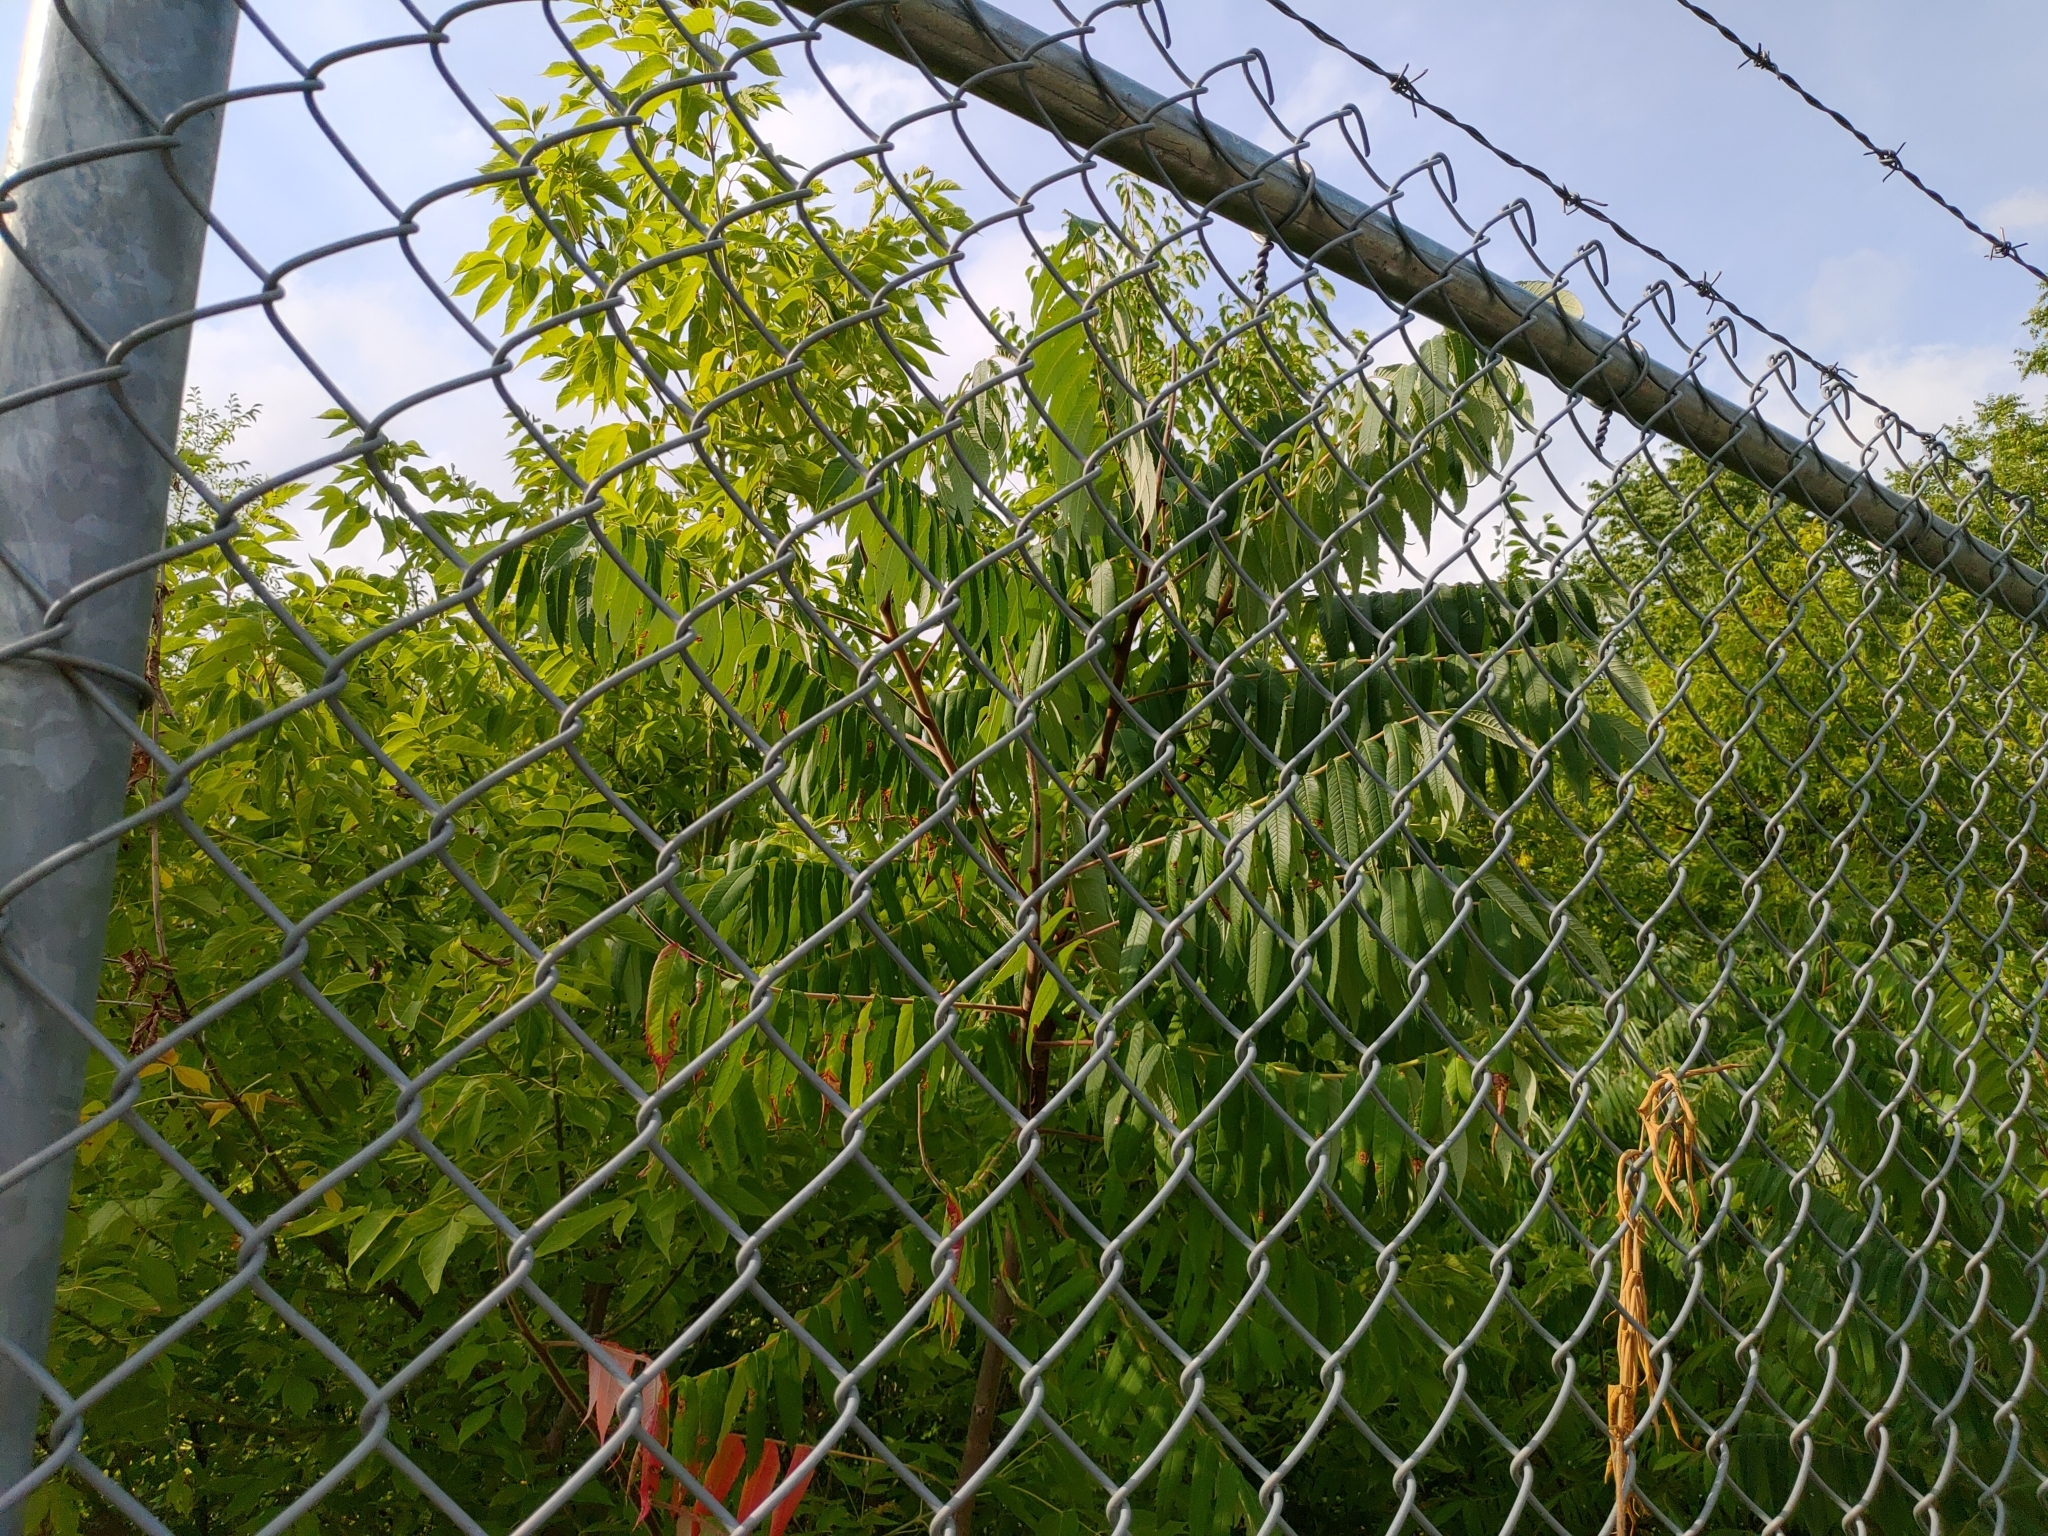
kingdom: Plantae
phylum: Tracheophyta
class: Magnoliopsida
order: Sapindales
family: Anacardiaceae
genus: Rhus
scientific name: Rhus typhina
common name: Staghorn sumac
